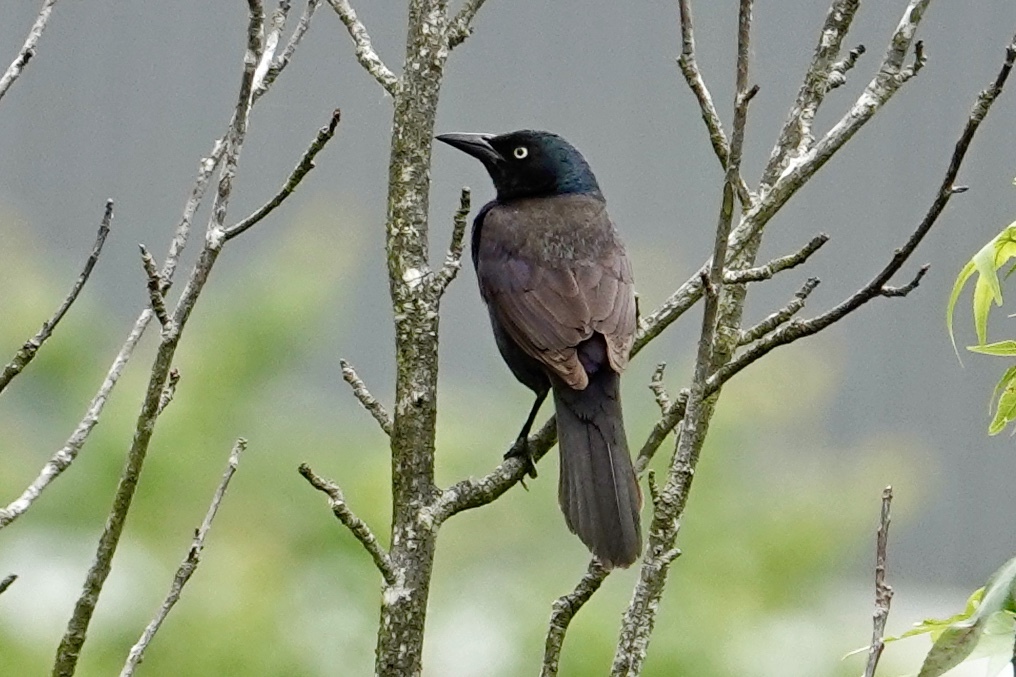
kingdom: Animalia
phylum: Chordata
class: Aves
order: Passeriformes
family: Icteridae
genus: Quiscalus
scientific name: Quiscalus quiscula
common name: Common grackle
